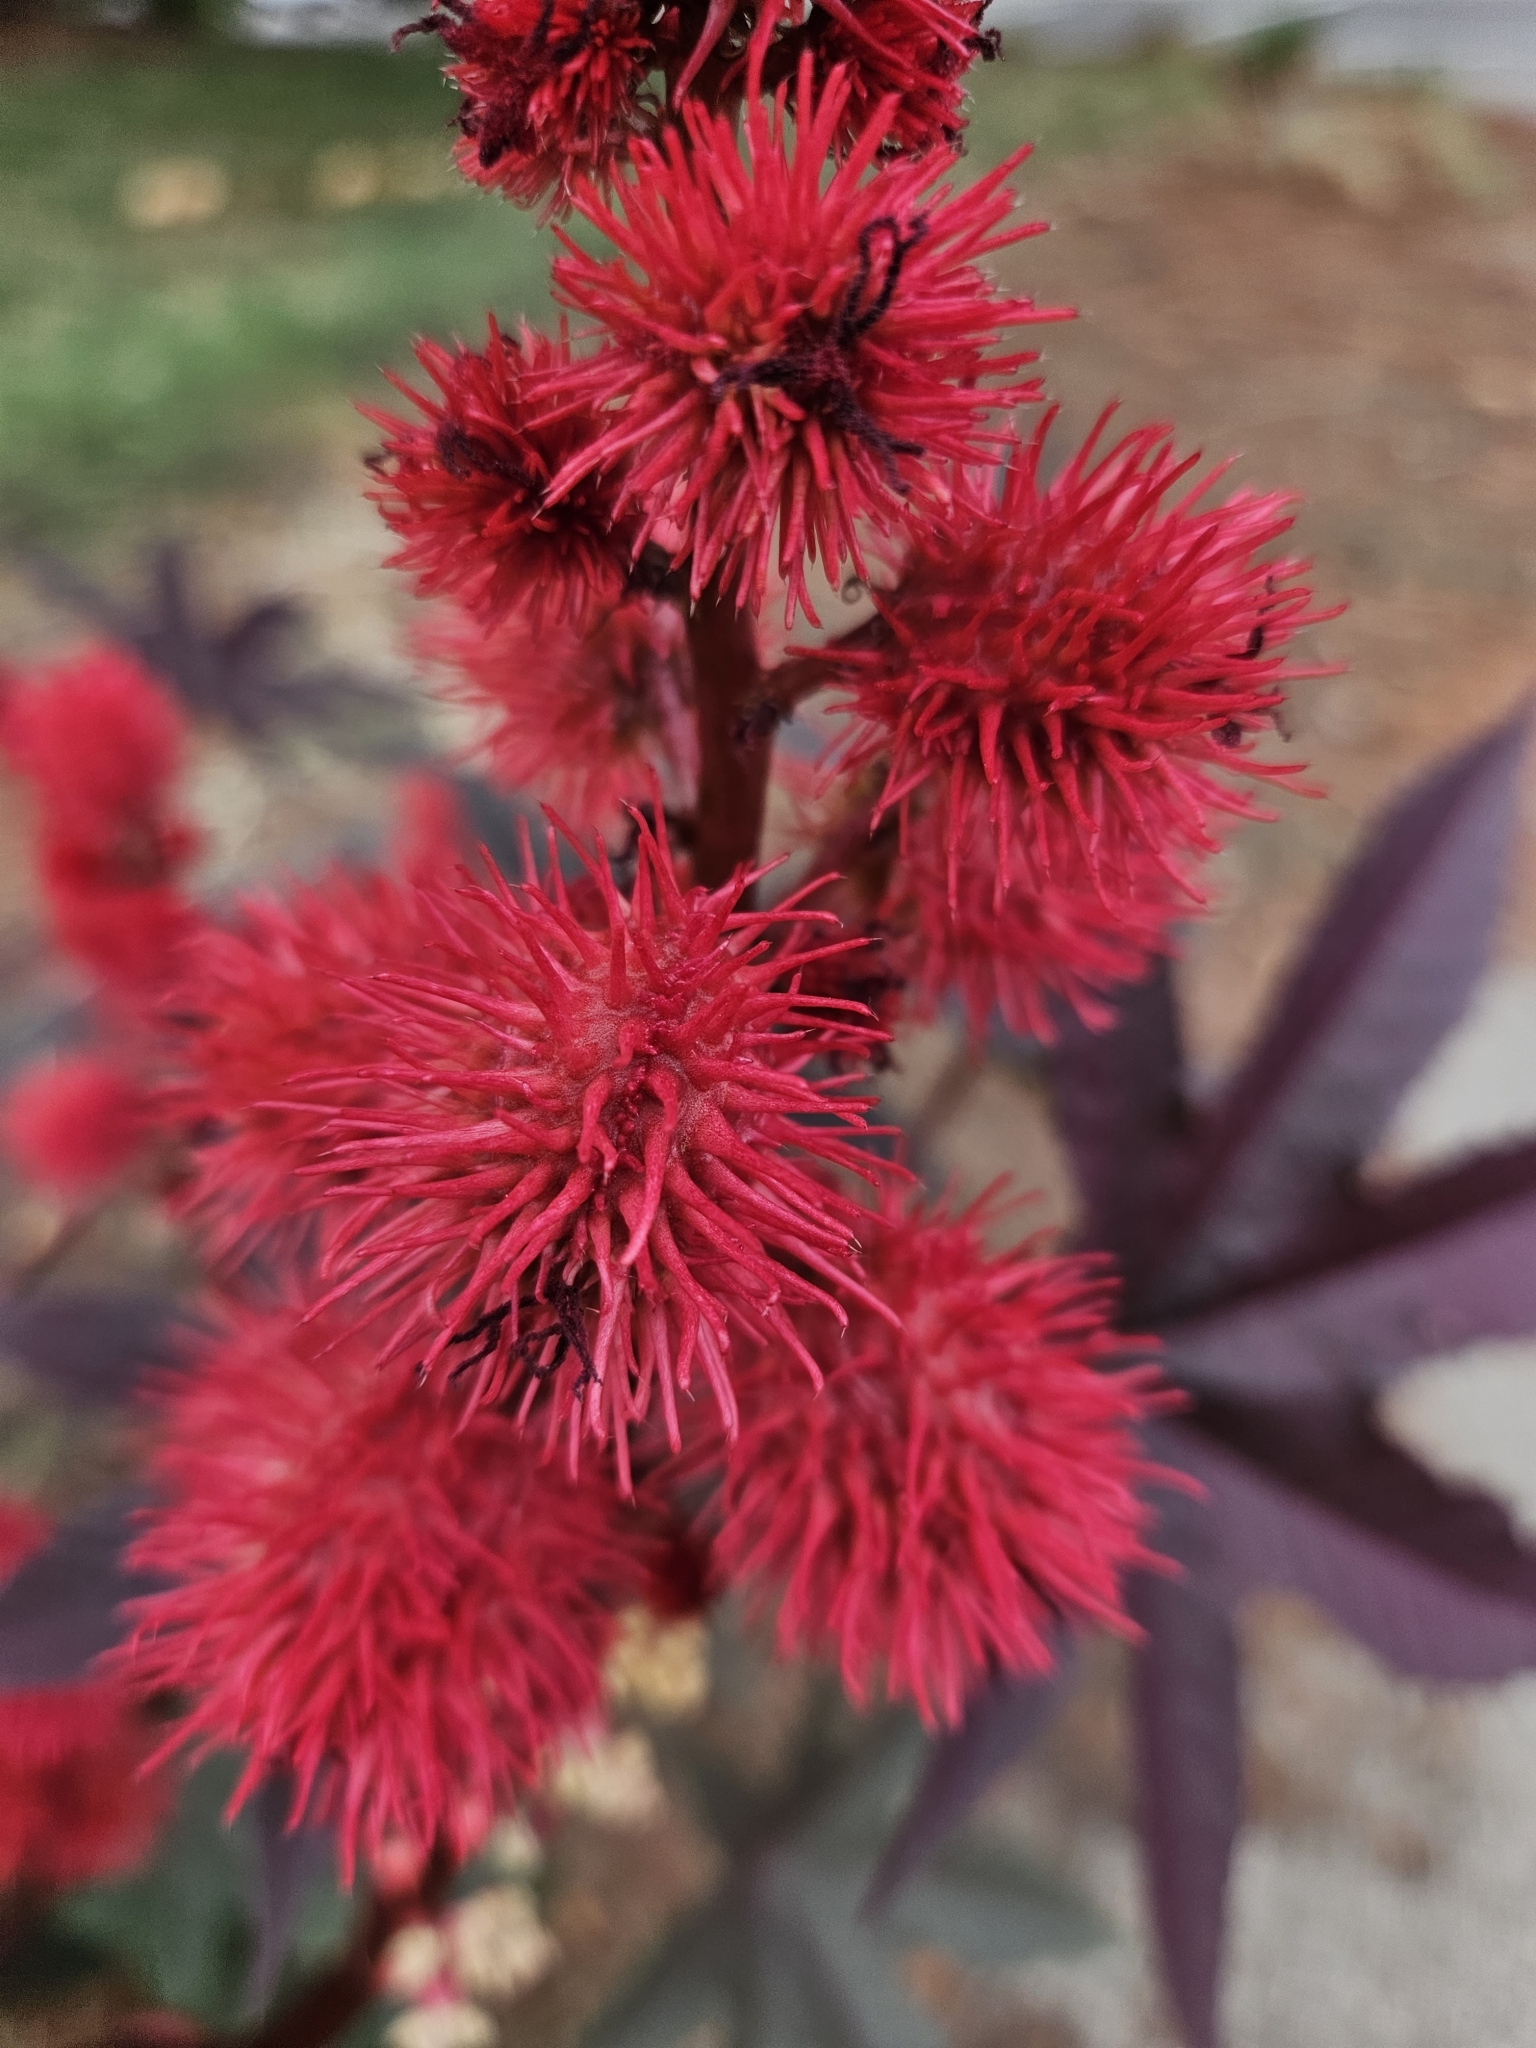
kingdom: Plantae
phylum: Tracheophyta
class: Magnoliopsida
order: Malpighiales
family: Euphorbiaceae
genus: Ricinus
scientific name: Ricinus communis
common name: Castor-oil-plant
